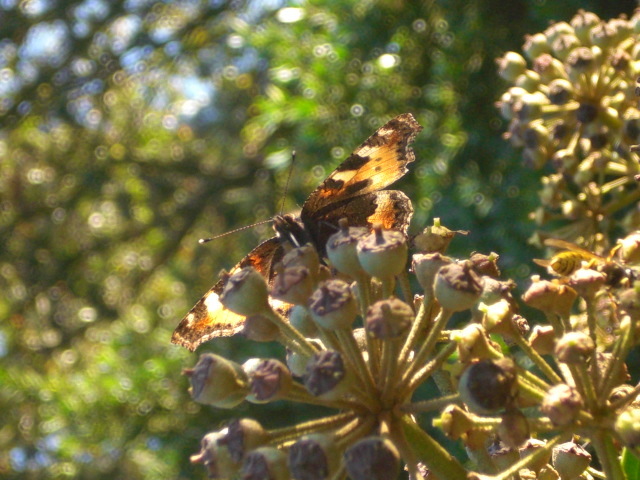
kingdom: Animalia
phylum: Arthropoda
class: Insecta
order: Lepidoptera
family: Nymphalidae
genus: Aglais
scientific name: Aglais urticae
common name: Small tortoiseshell
